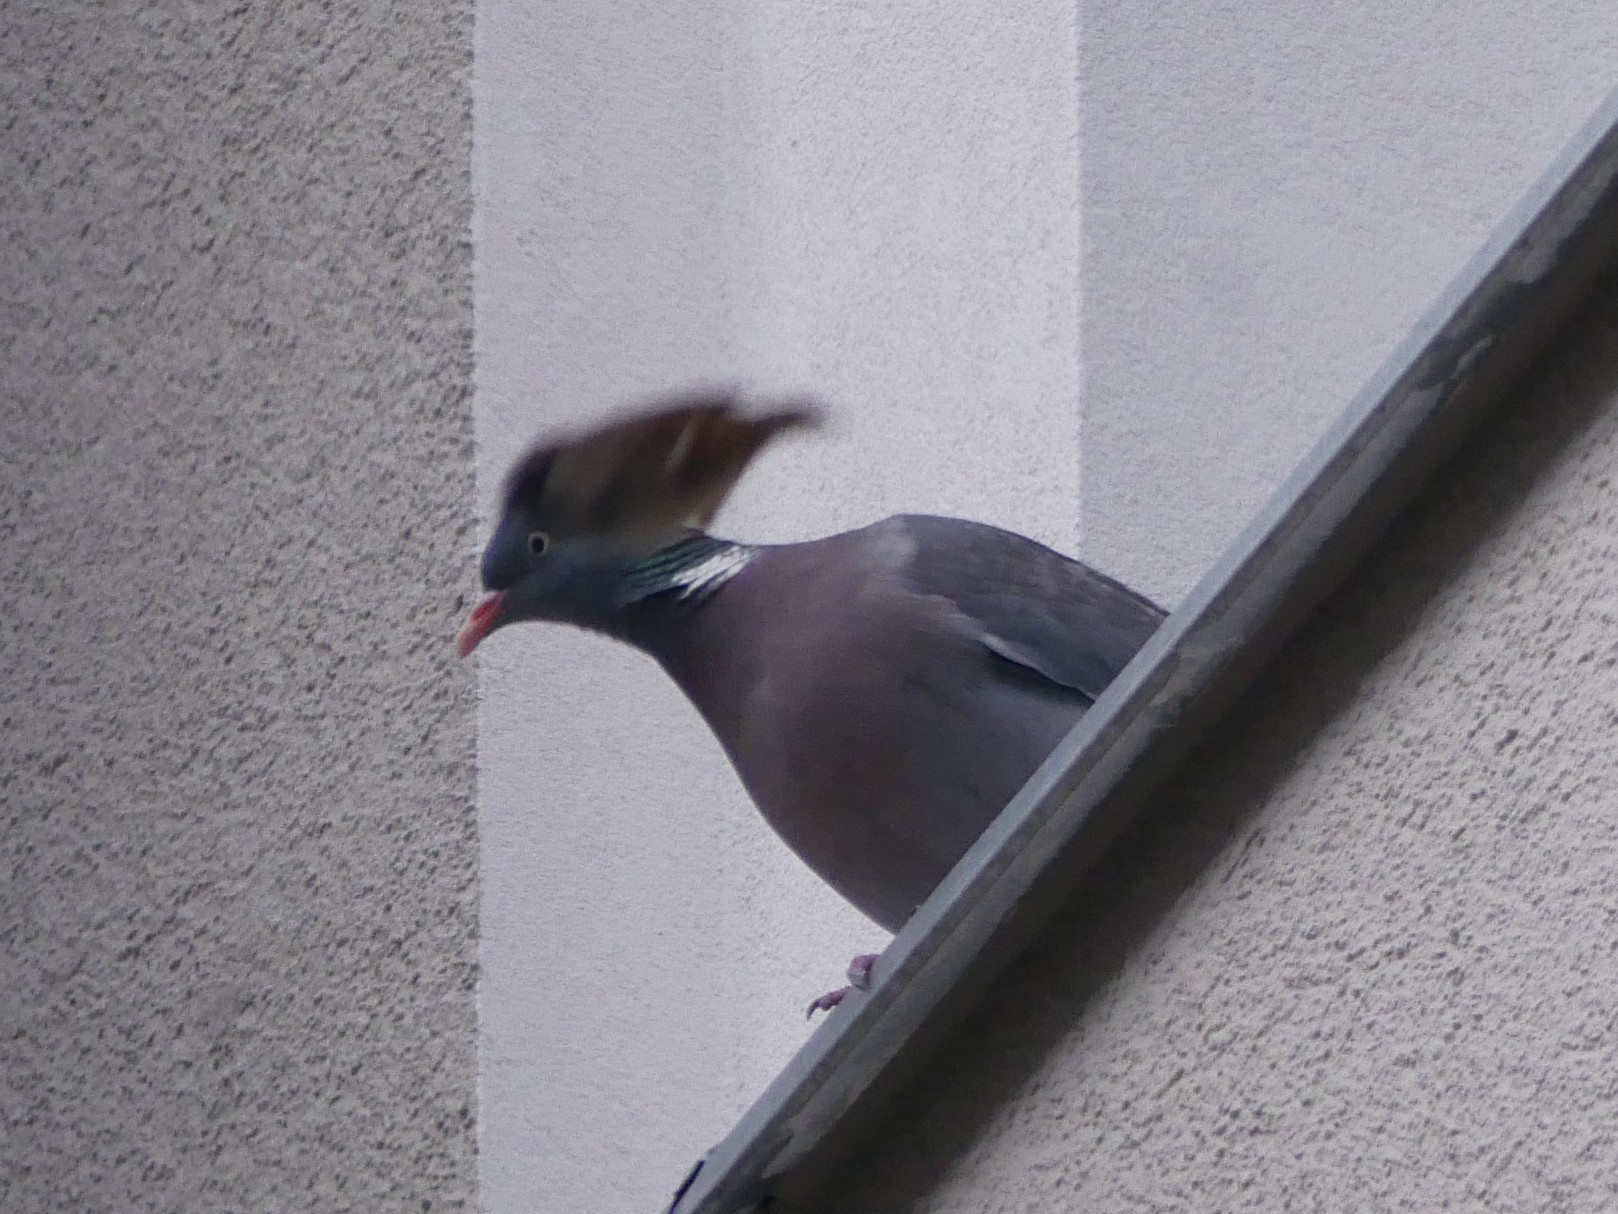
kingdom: Animalia
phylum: Chordata
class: Aves
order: Columbiformes
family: Columbidae
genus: Columba
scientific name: Columba palumbus
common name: Common wood pigeon
